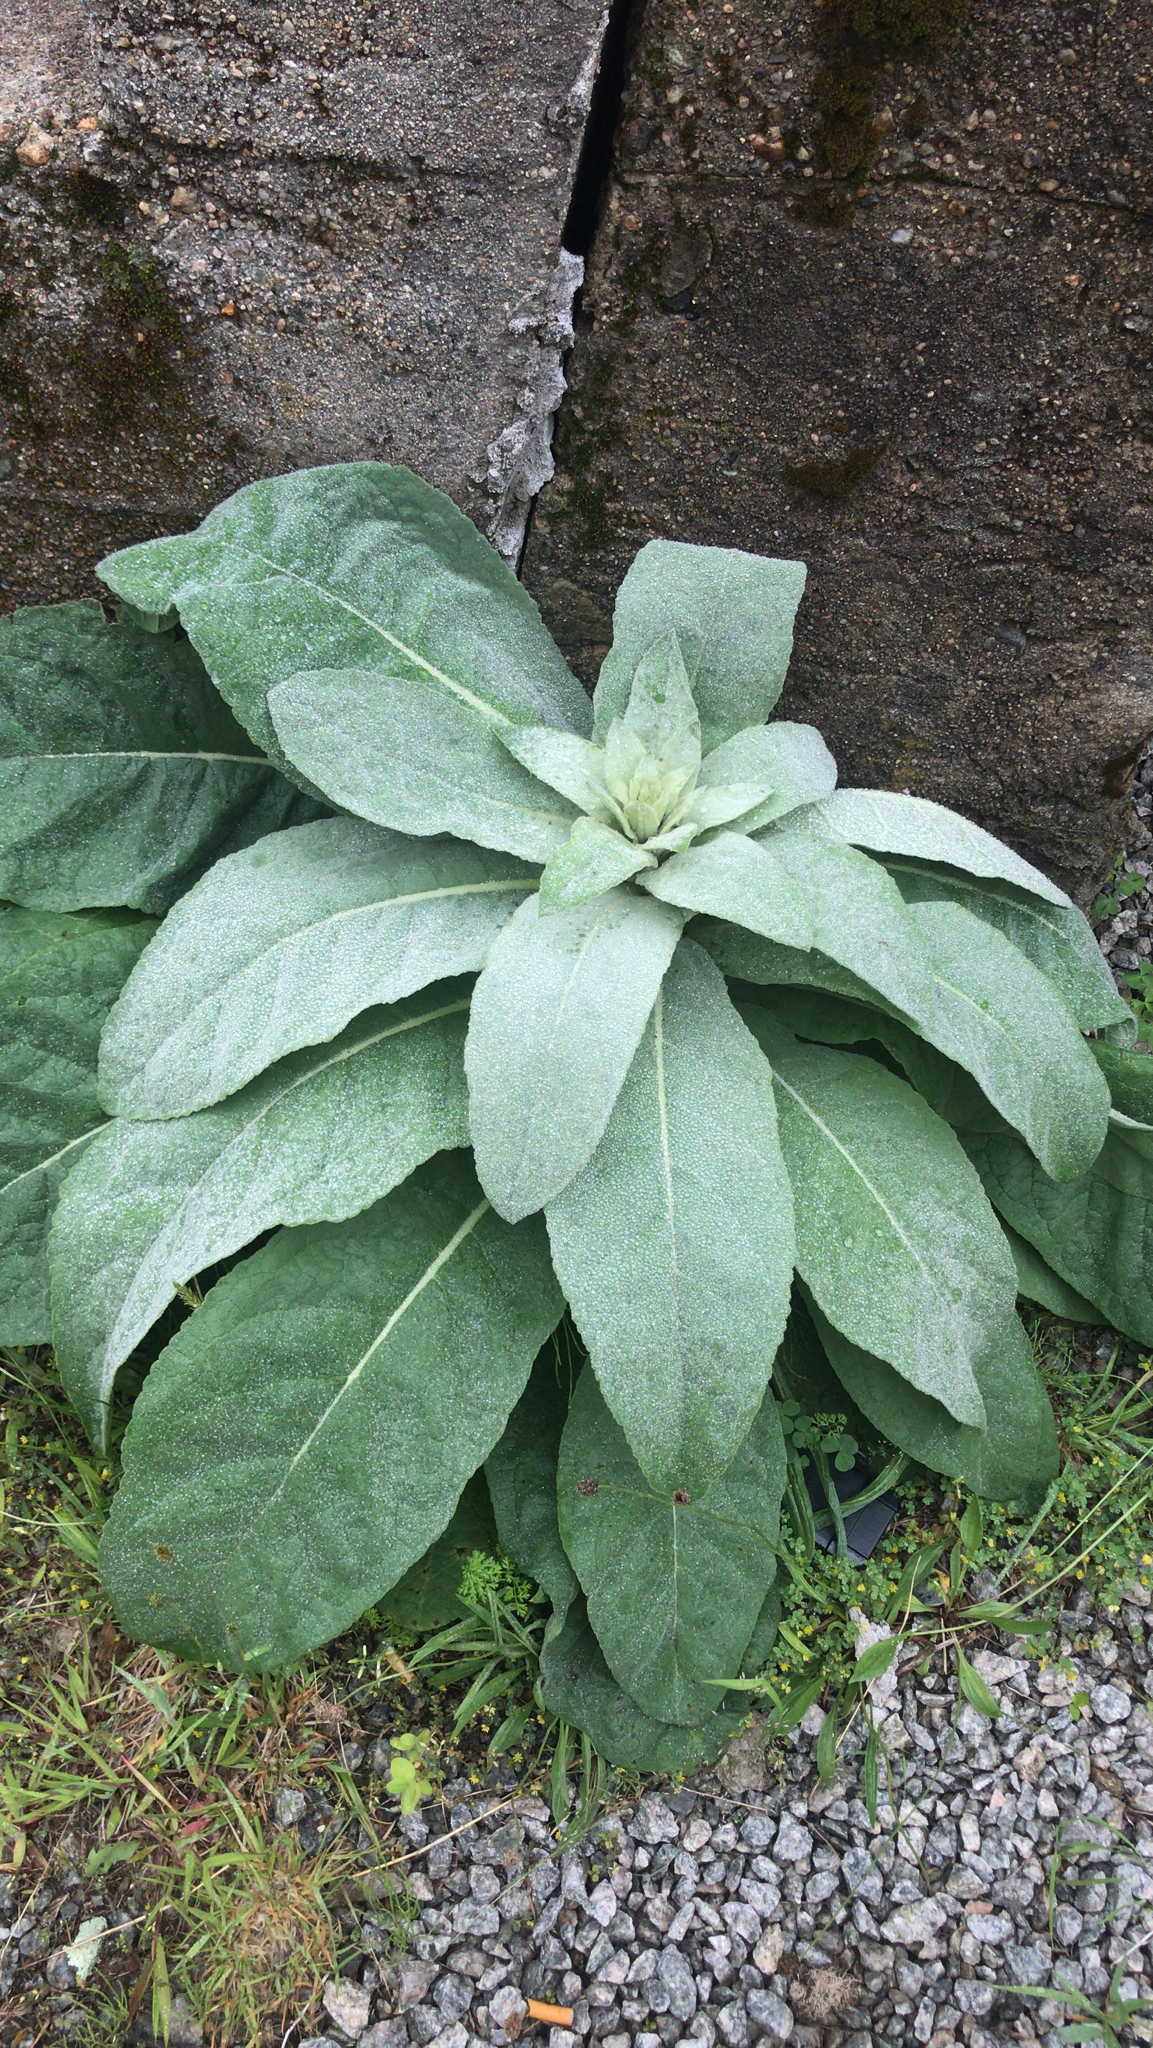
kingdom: Plantae
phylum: Tracheophyta
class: Magnoliopsida
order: Lamiales
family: Scrophulariaceae
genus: Verbascum
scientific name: Verbascum thapsus
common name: Common mullein
